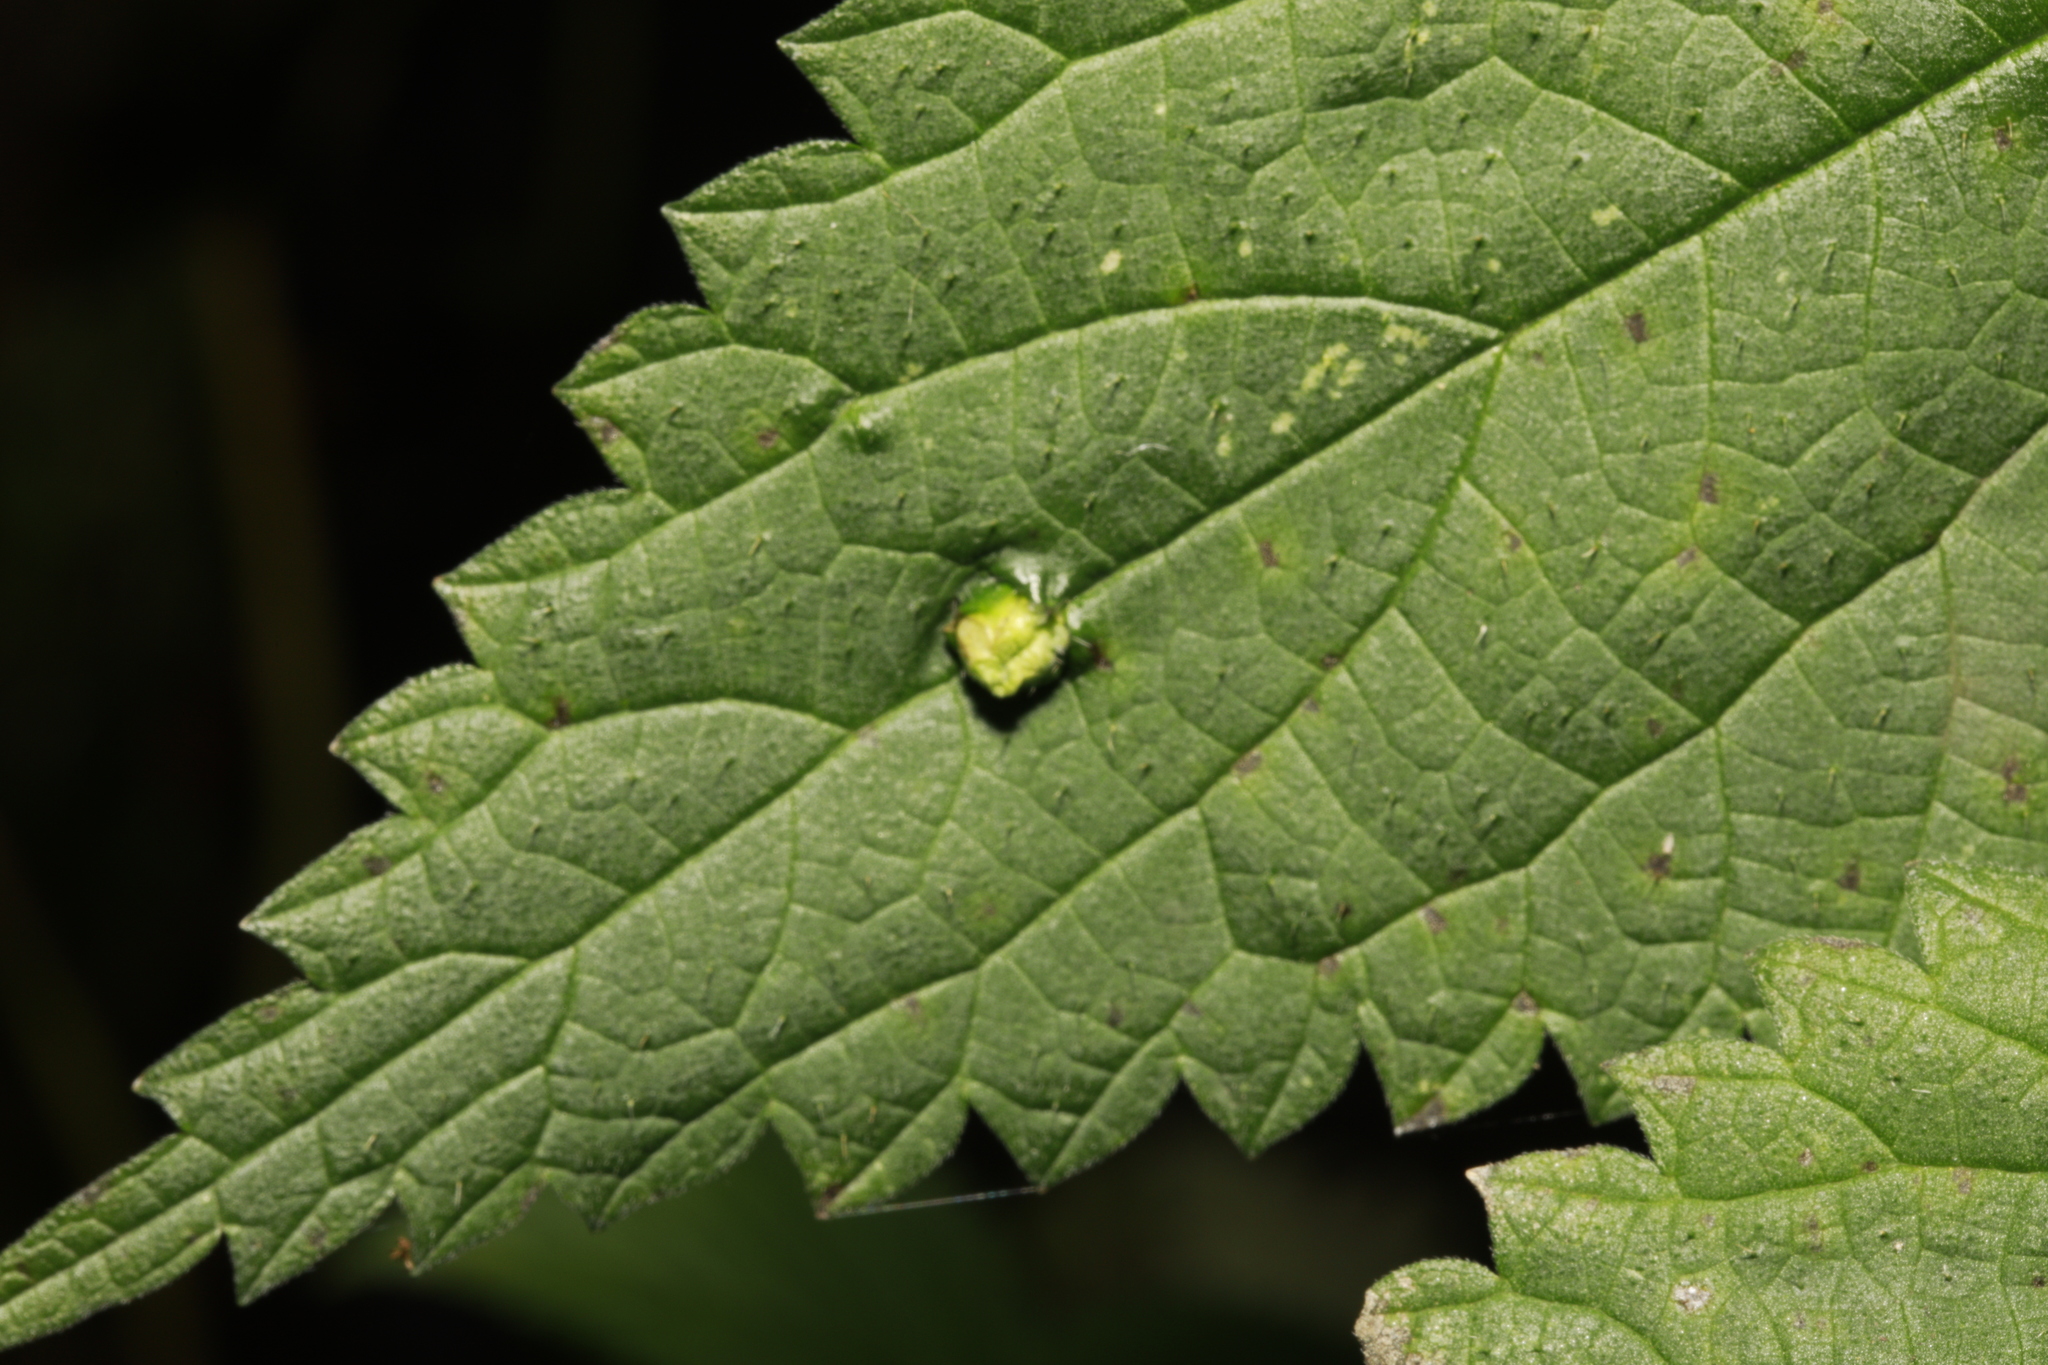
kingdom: Plantae
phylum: Tracheophyta
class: Magnoliopsida
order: Rosales
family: Urticaceae
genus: Urtica
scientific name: Urtica dioica
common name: Common nettle
